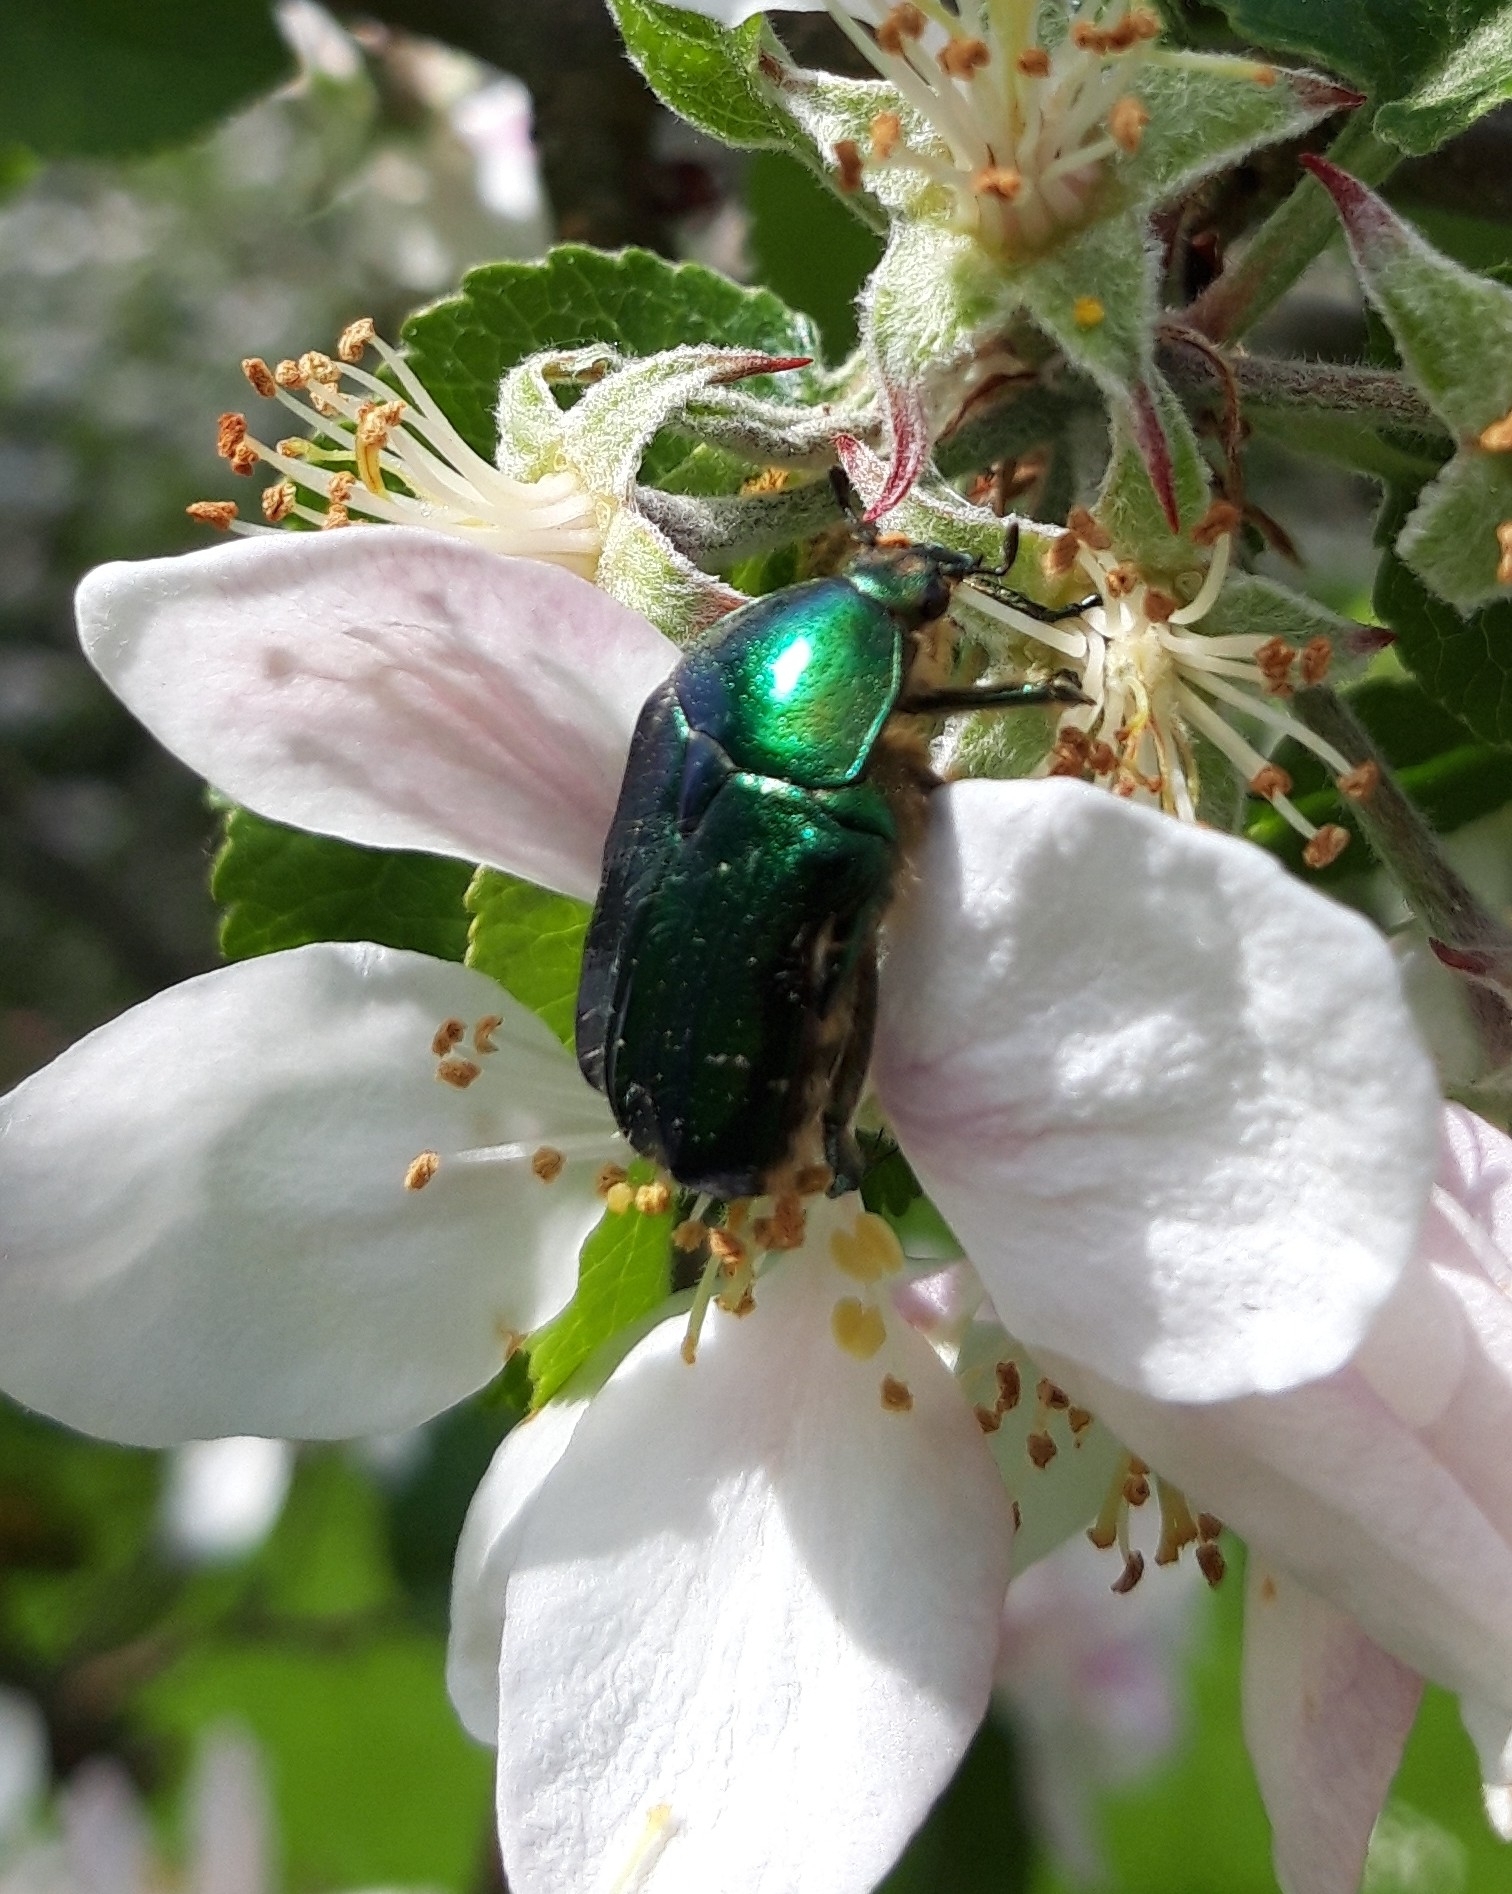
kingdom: Animalia
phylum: Arthropoda
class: Insecta
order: Coleoptera
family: Scarabaeidae
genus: Cetonia
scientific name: Cetonia aurata
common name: Rose chafer
